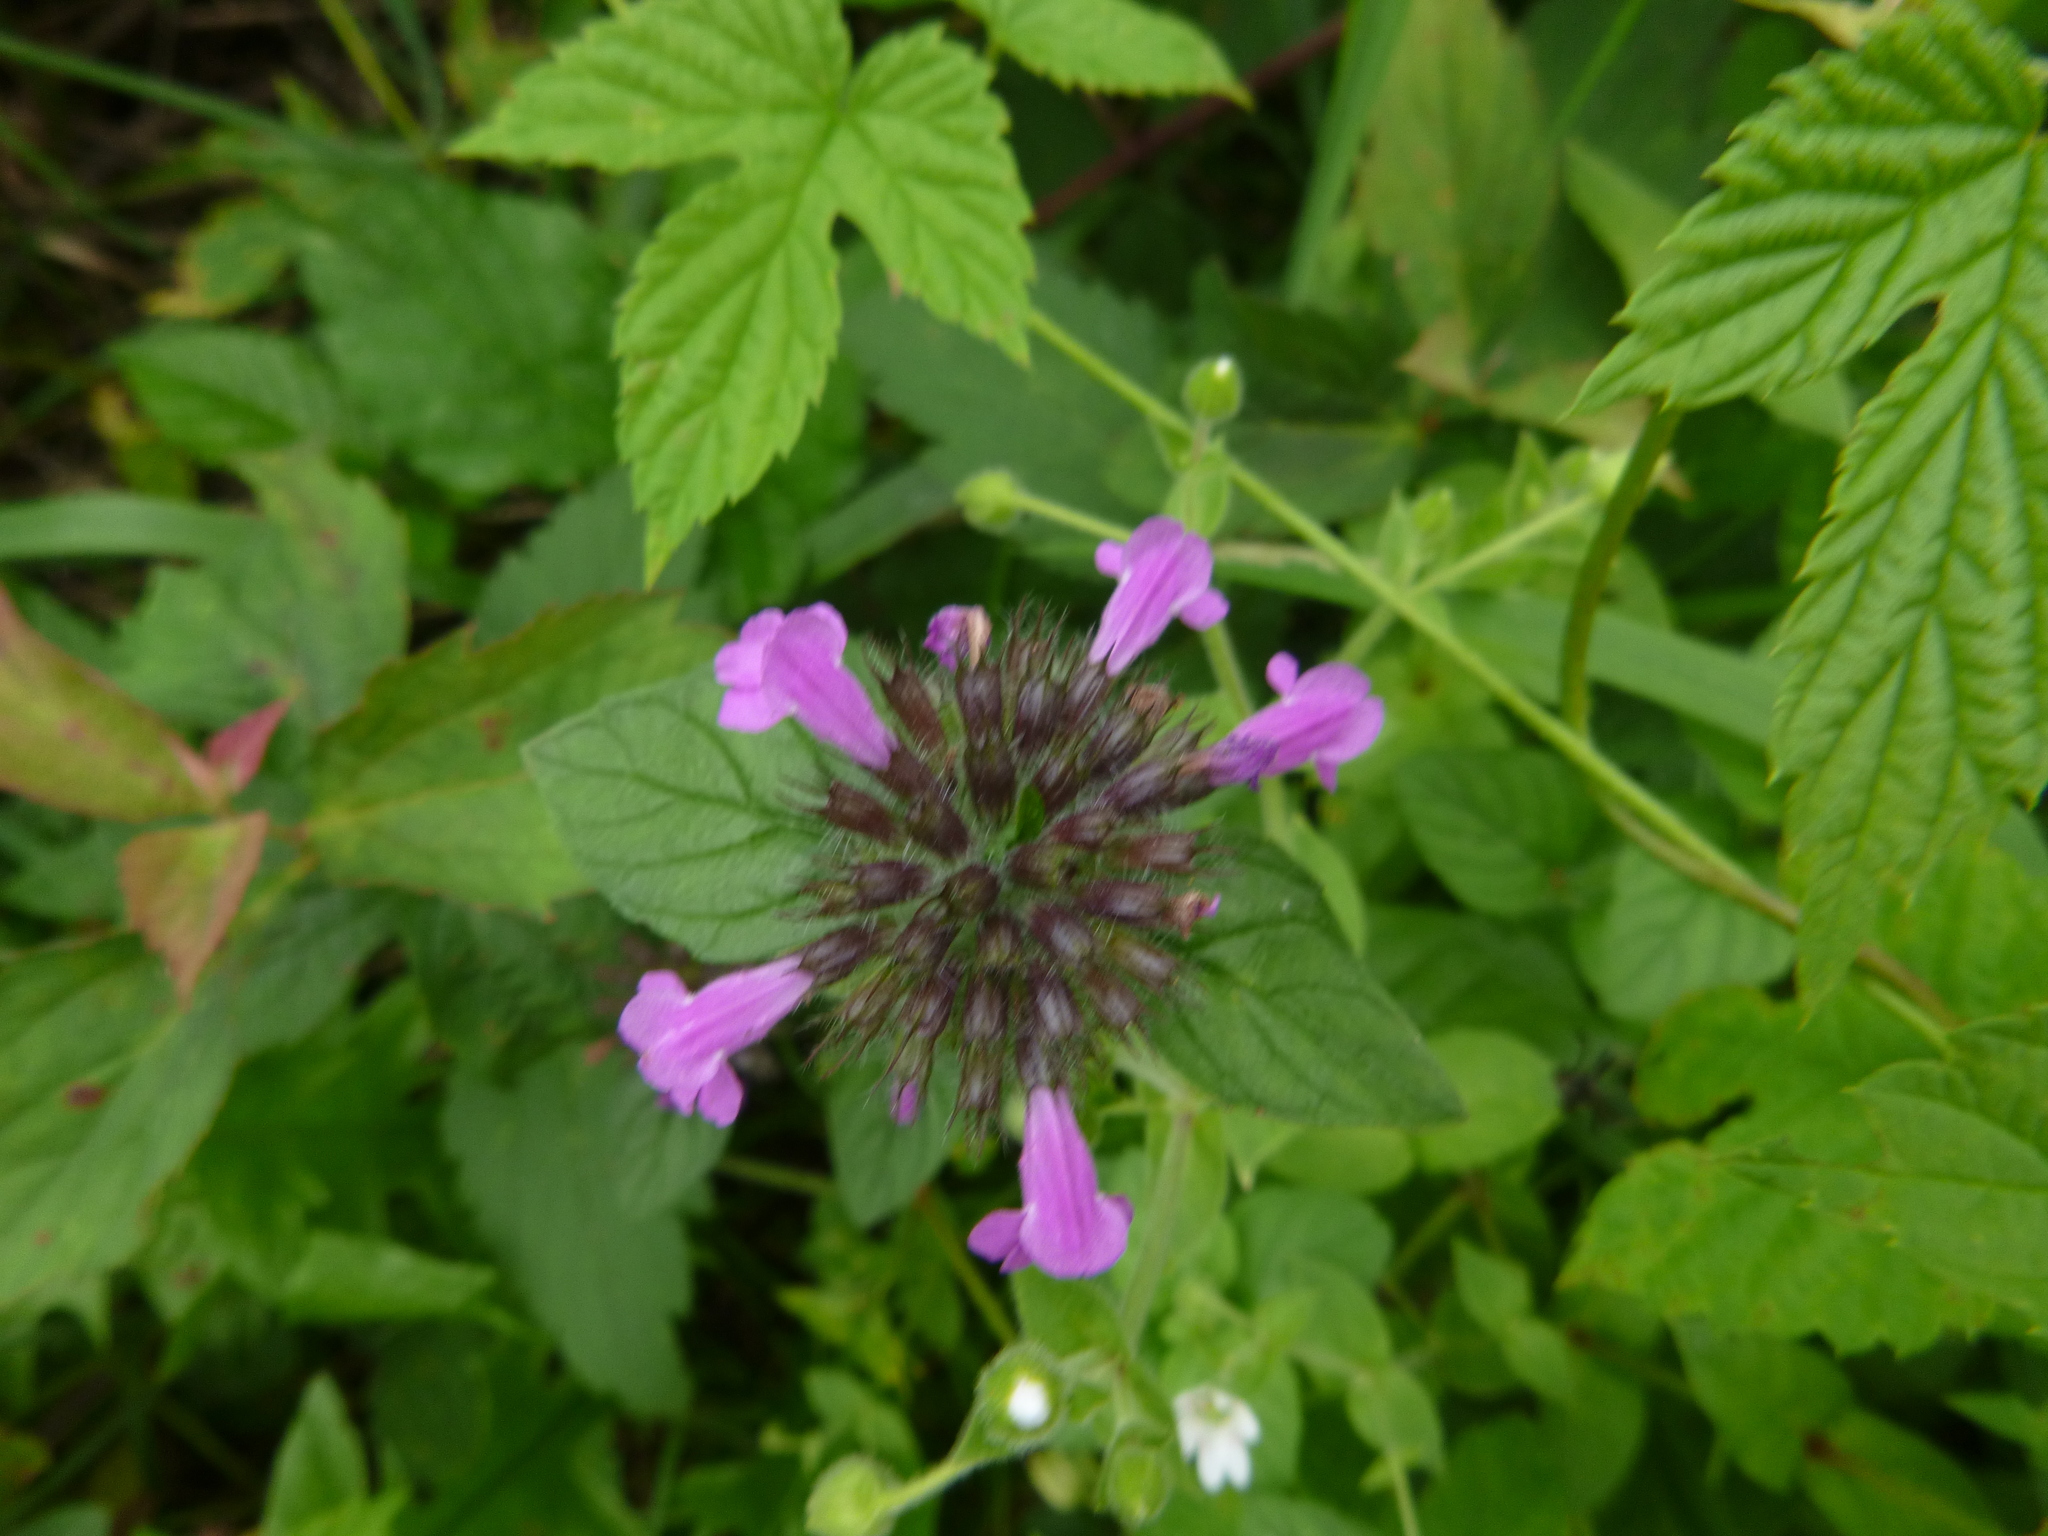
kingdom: Plantae
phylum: Tracheophyta
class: Magnoliopsida
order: Lamiales
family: Lamiaceae
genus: Clinopodium
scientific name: Clinopodium vulgare
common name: Wild basil
